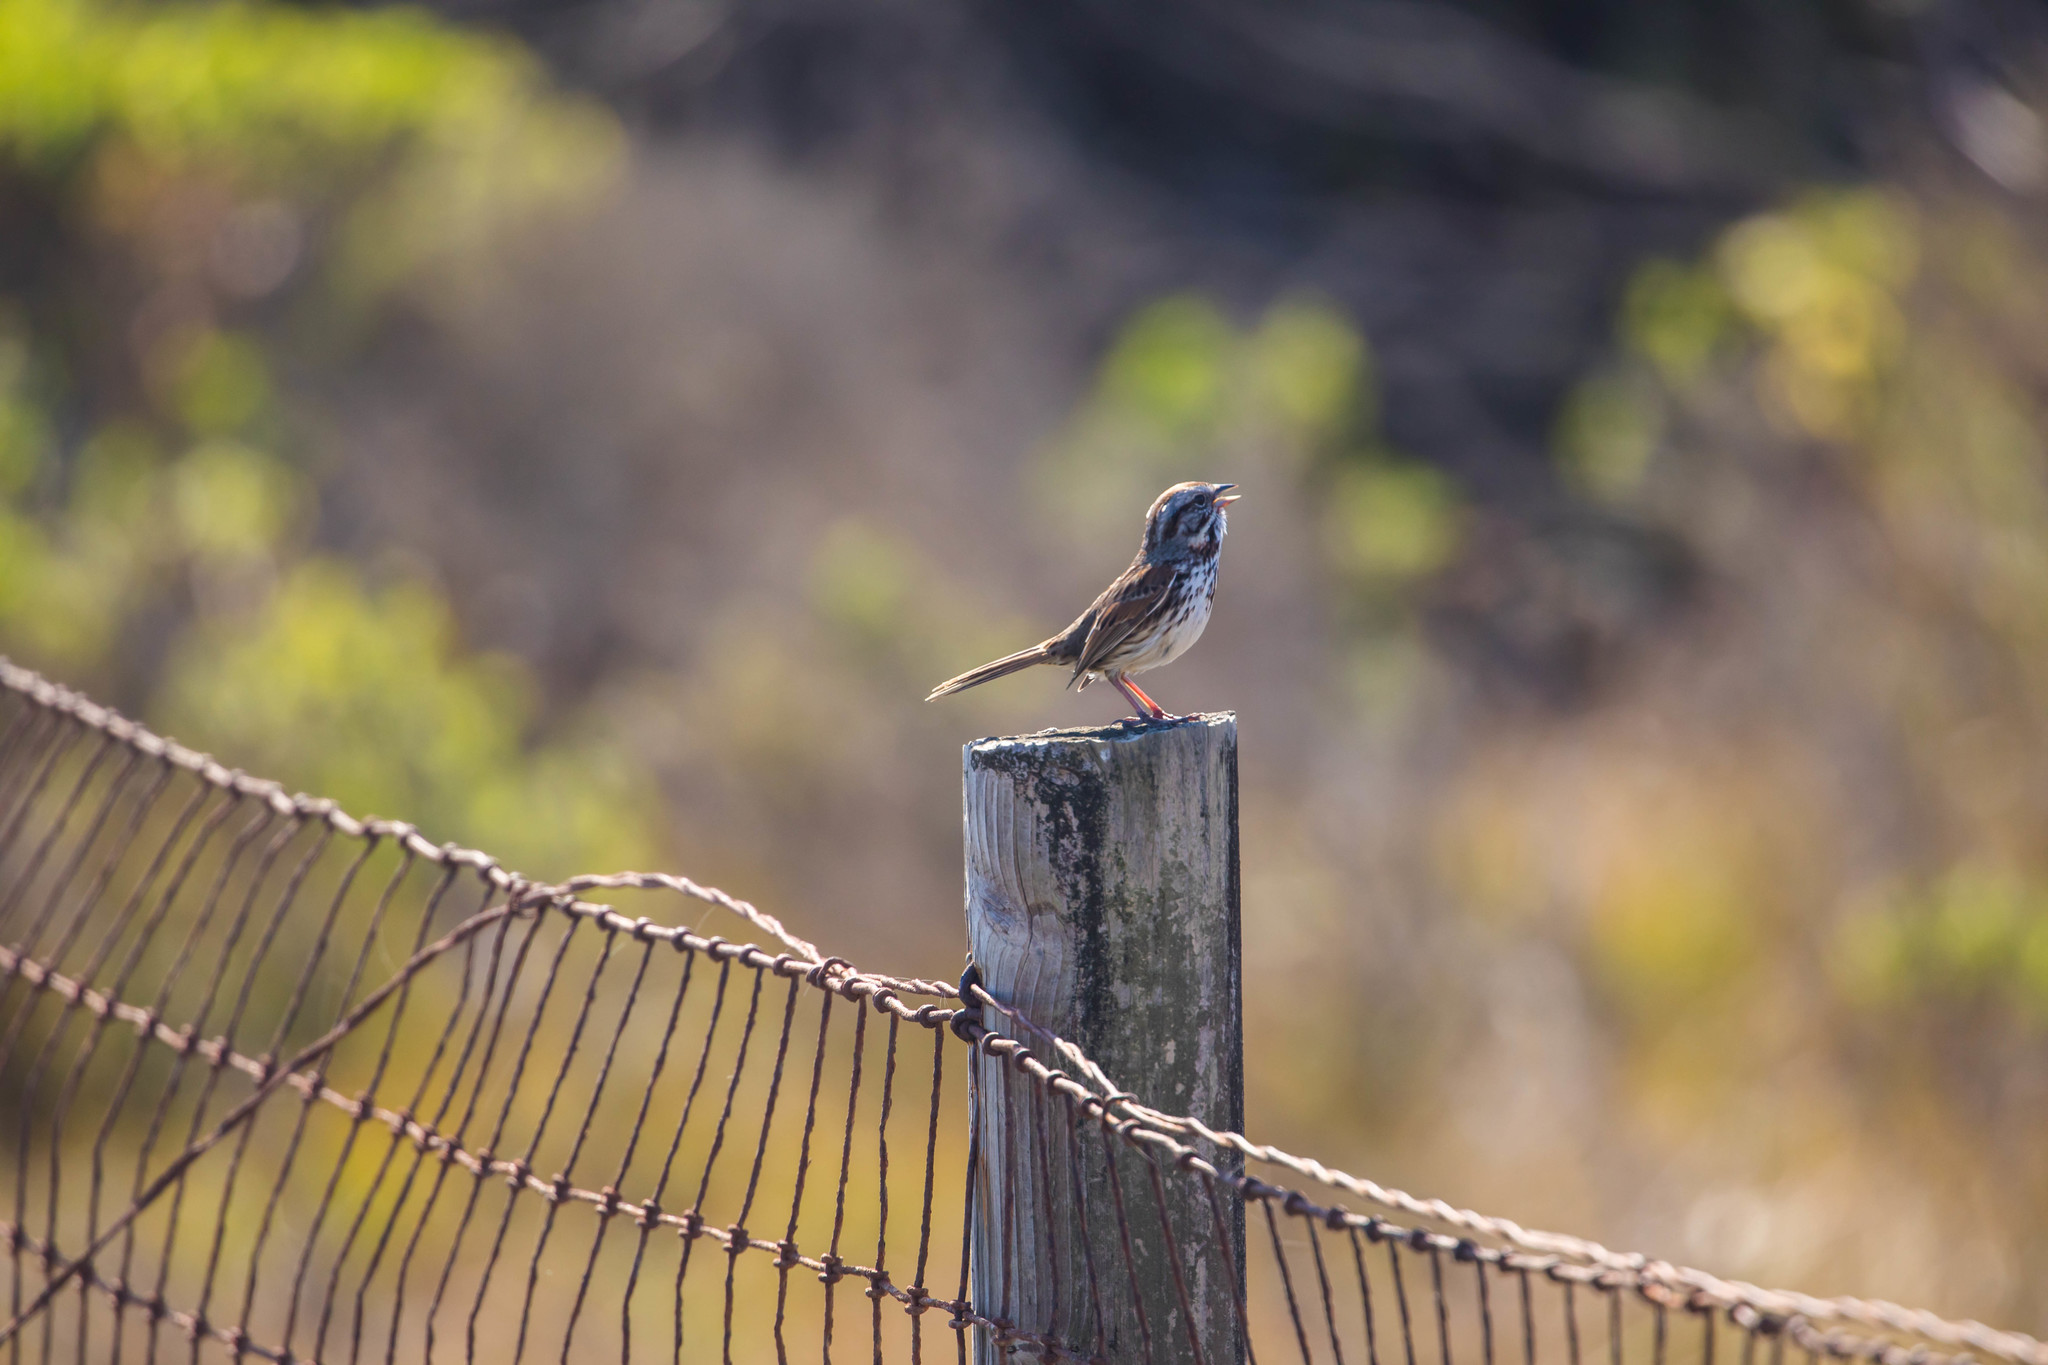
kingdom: Animalia
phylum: Chordata
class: Aves
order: Passeriformes
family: Passerellidae
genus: Melospiza
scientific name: Melospiza melodia
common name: Song sparrow
